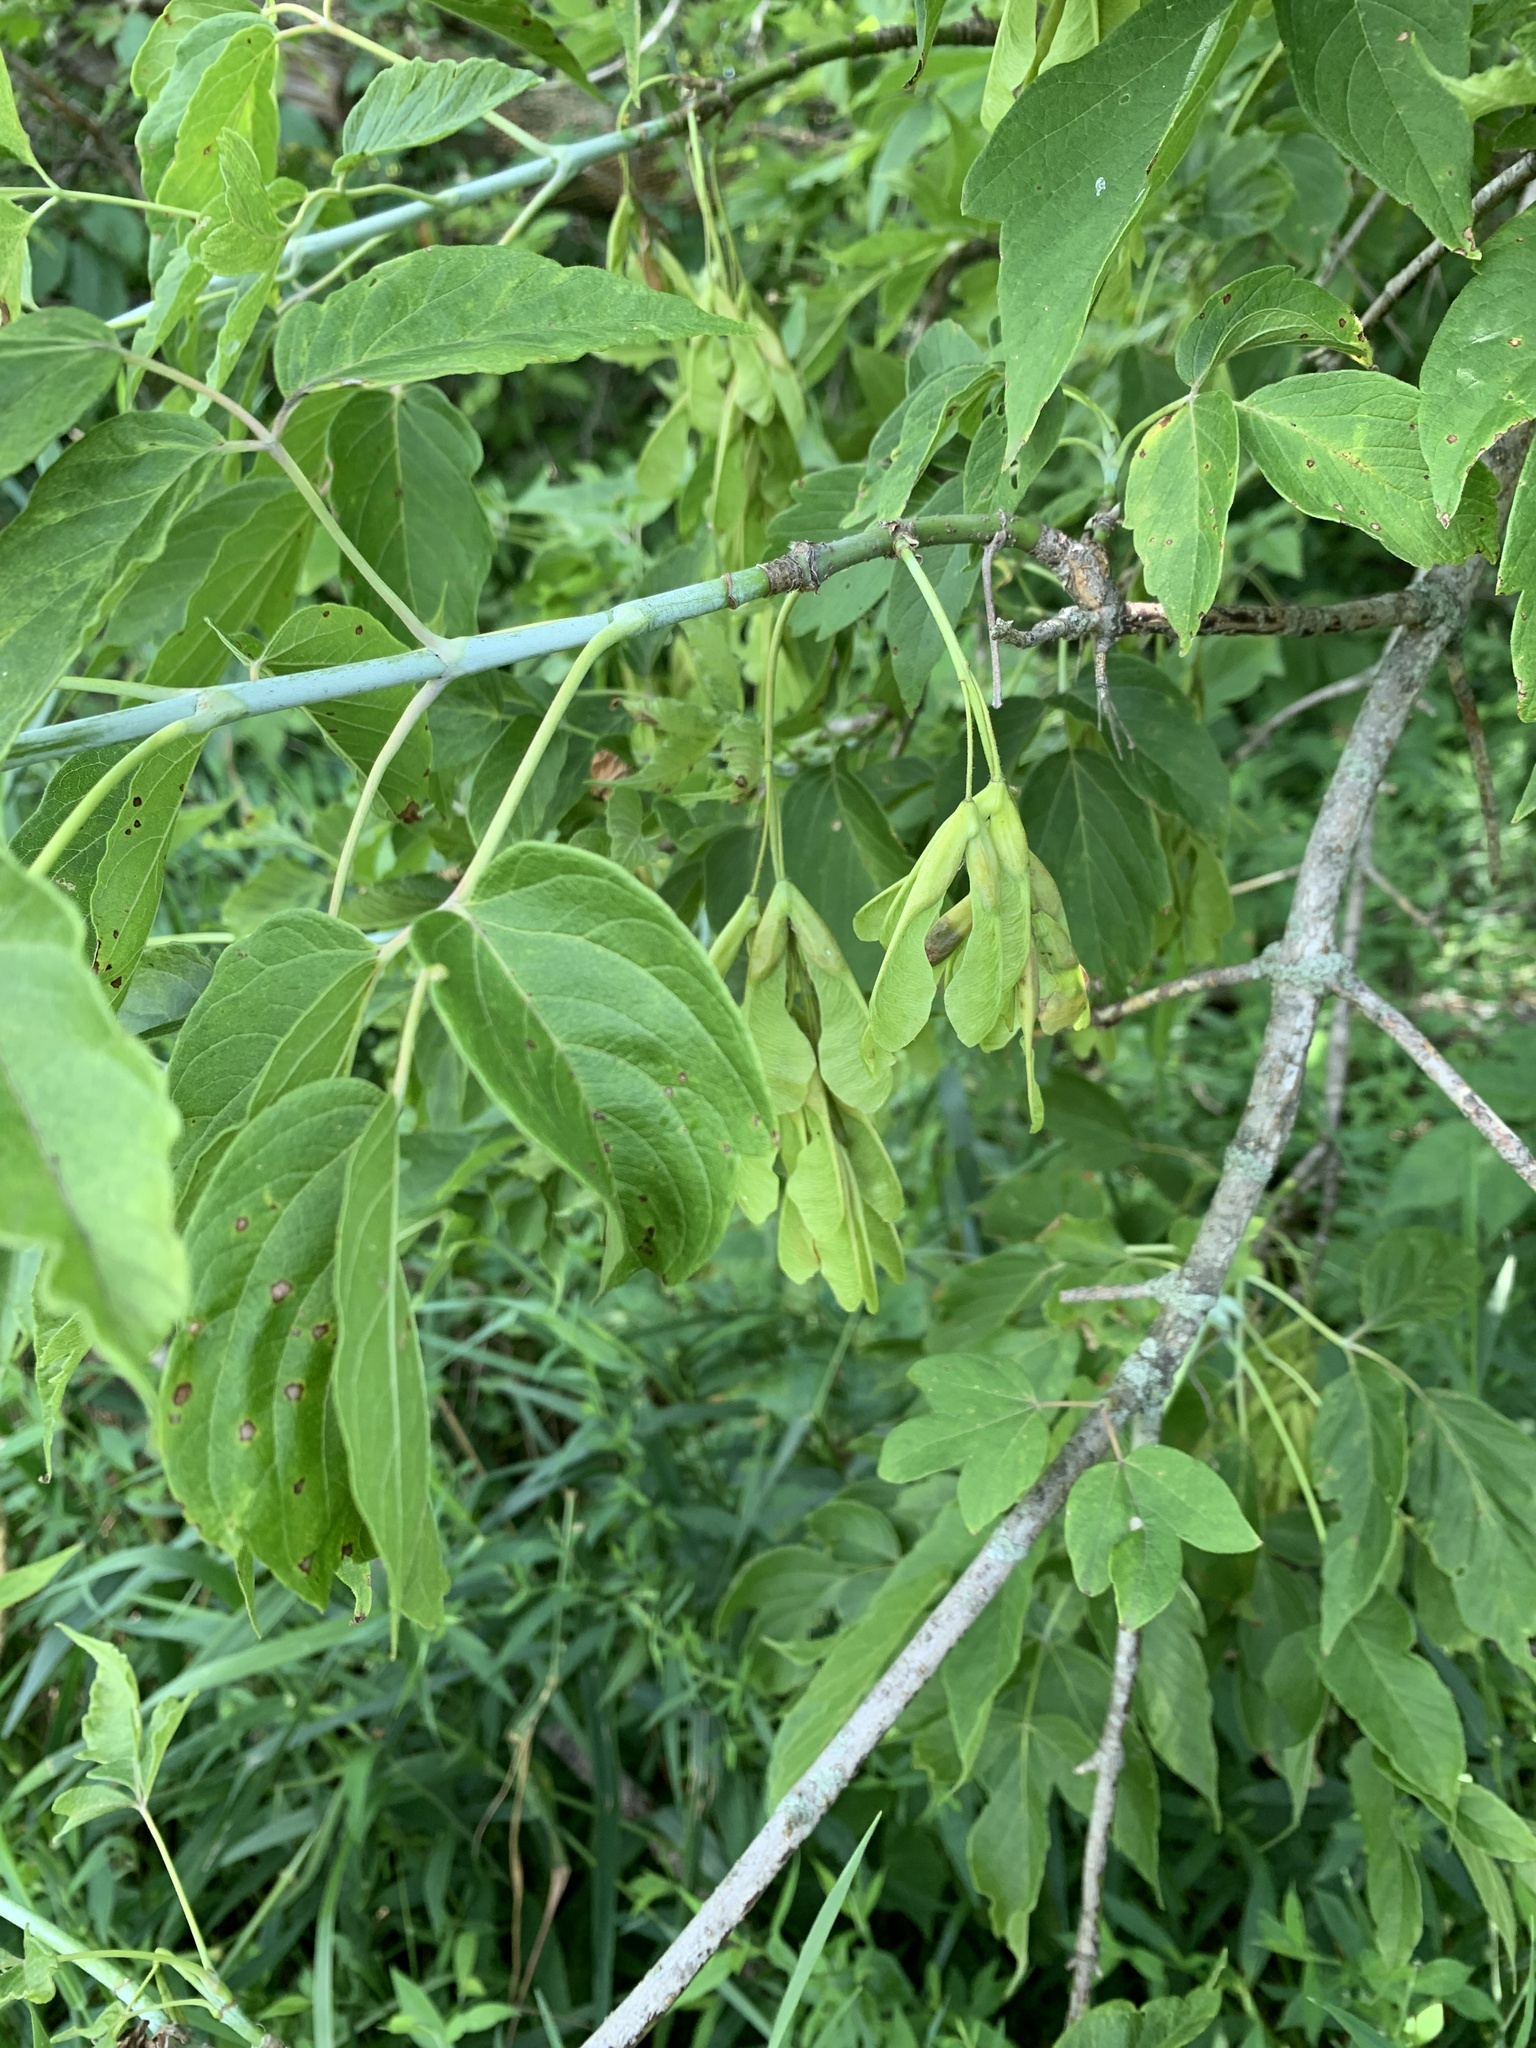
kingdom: Plantae
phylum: Tracheophyta
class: Magnoliopsida
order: Sapindales
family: Sapindaceae
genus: Acer
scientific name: Acer negundo
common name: Ashleaf maple
